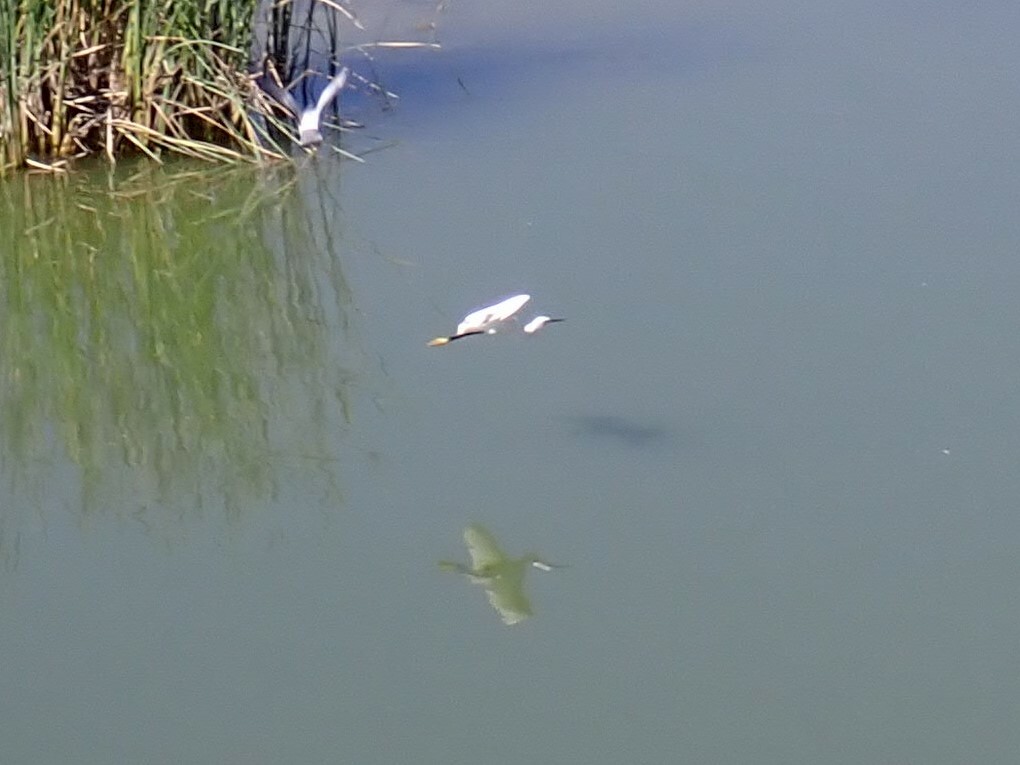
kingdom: Animalia
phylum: Chordata
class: Aves
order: Pelecaniformes
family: Ardeidae
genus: Egretta
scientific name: Egretta garzetta
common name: Little egret
